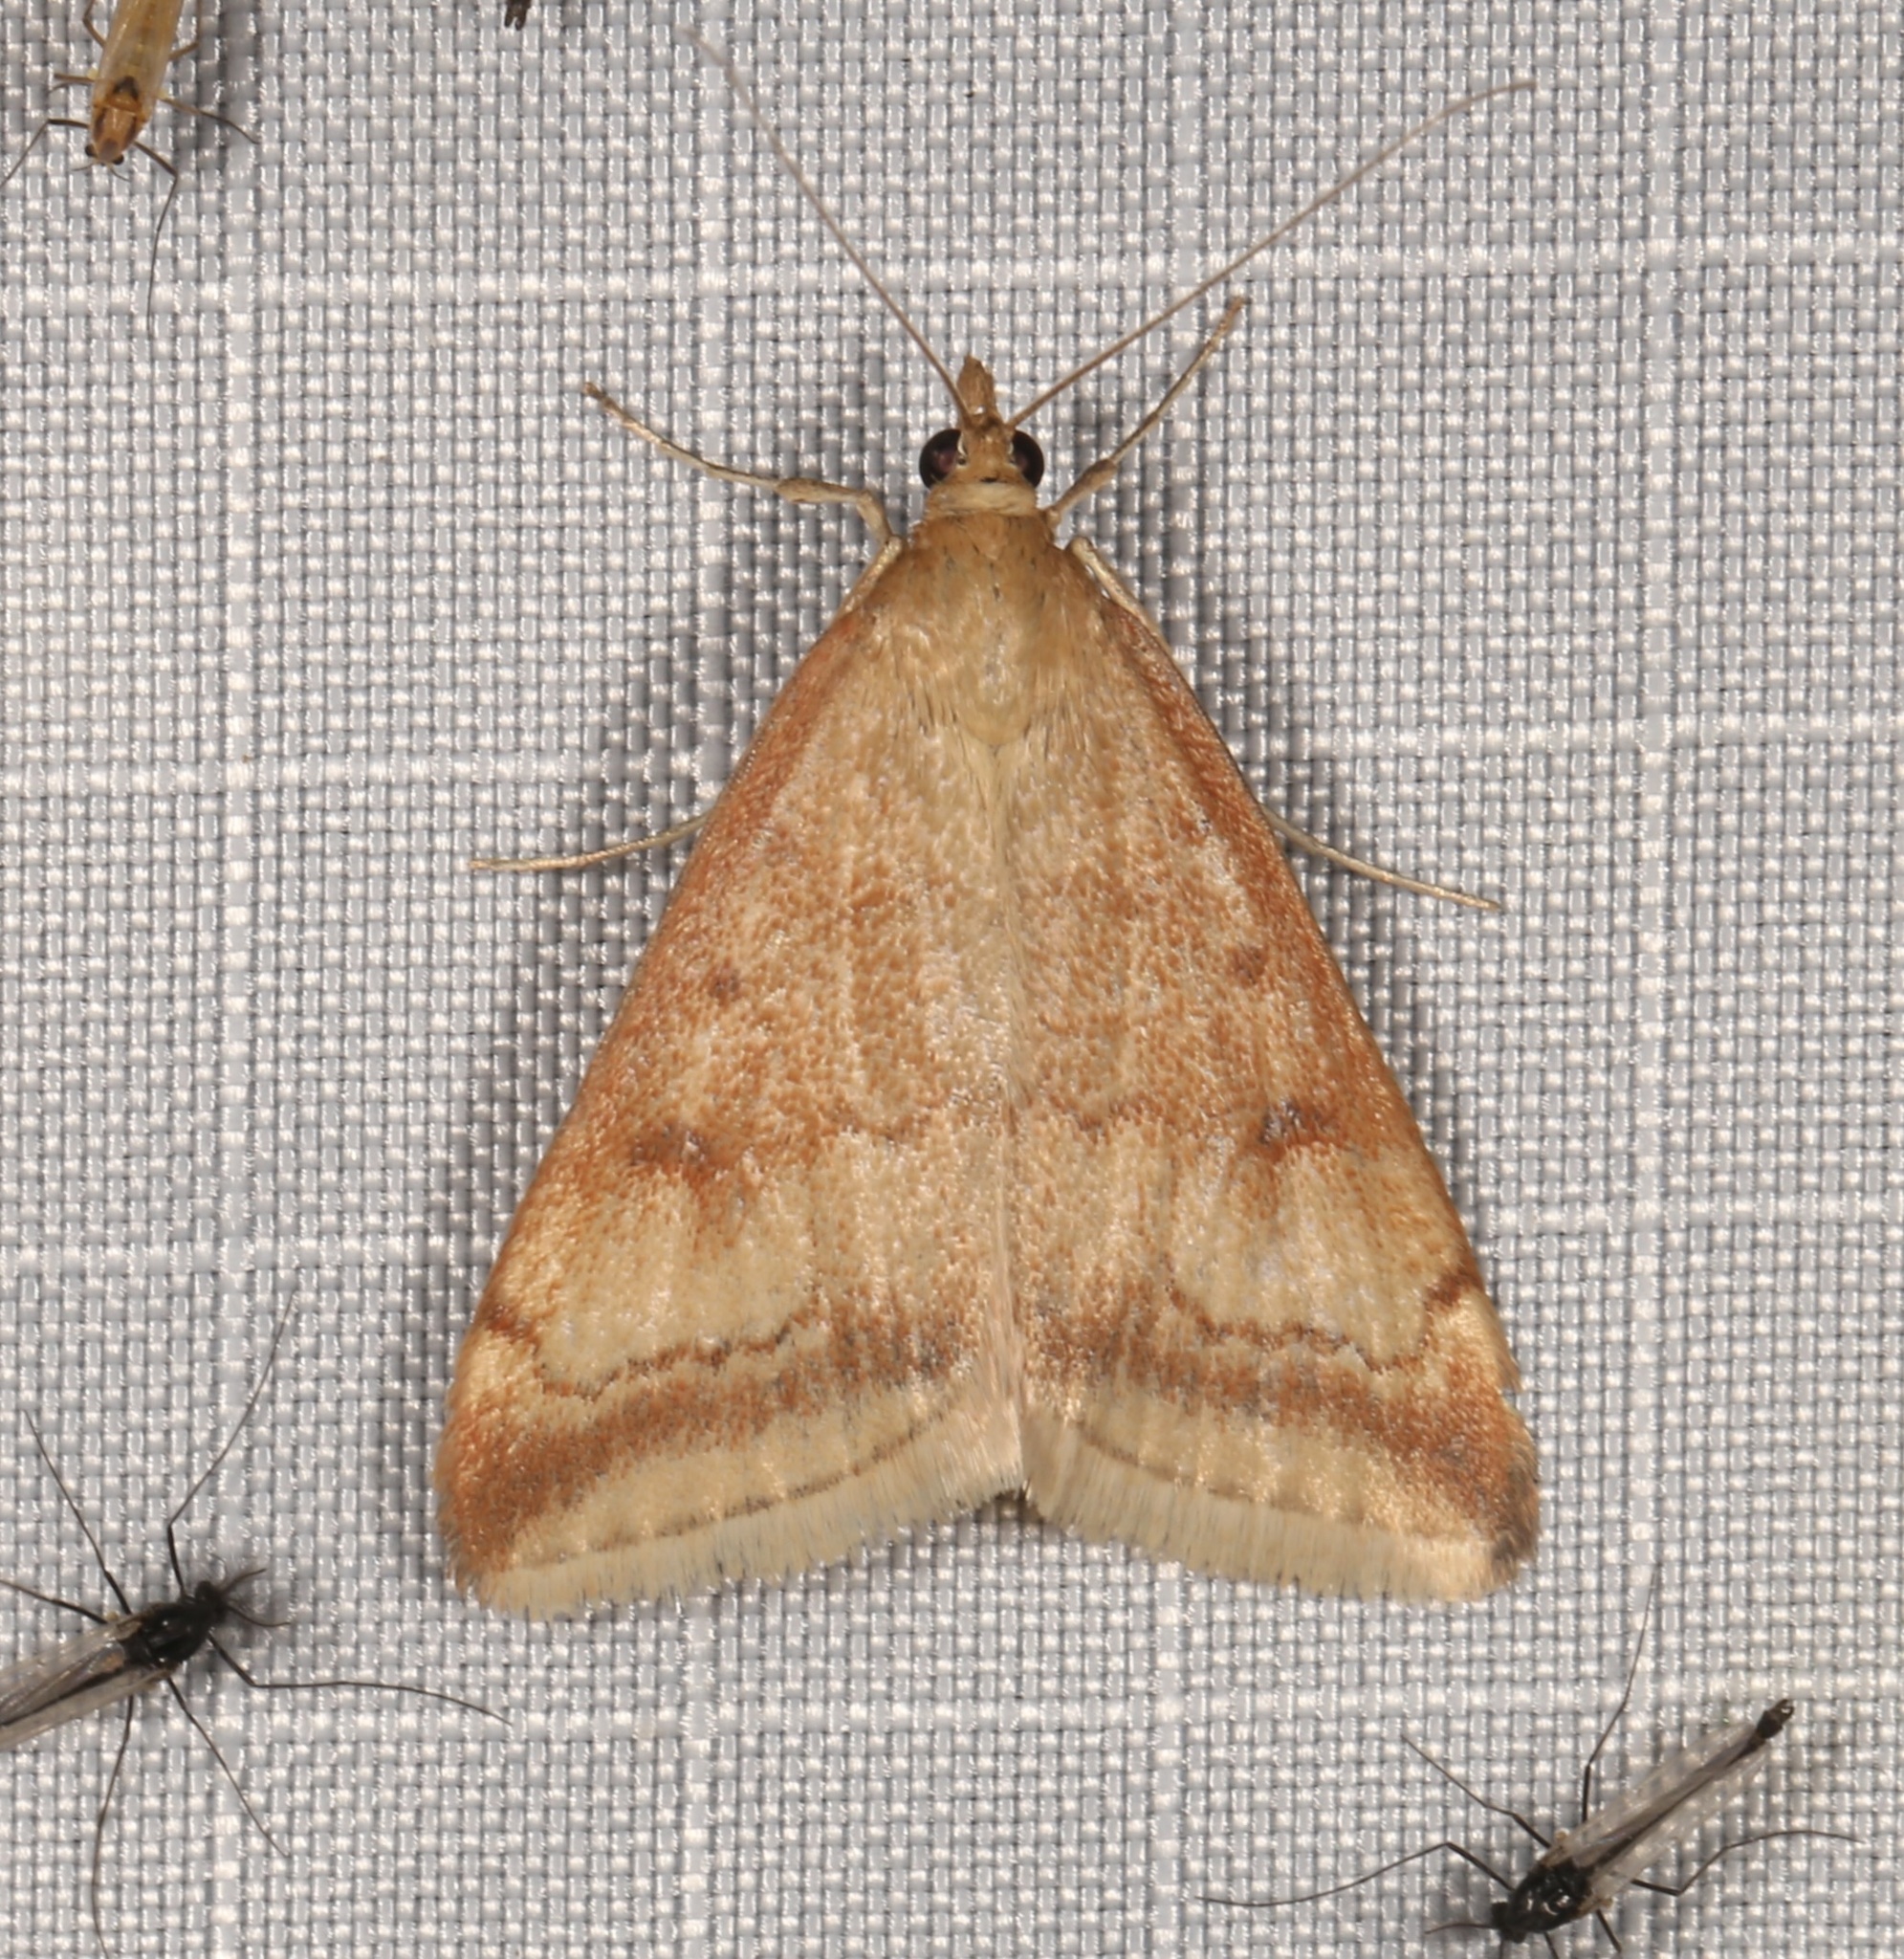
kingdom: Animalia
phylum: Arthropoda
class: Insecta
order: Lepidoptera
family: Crambidae
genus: Pyrausta
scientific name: Pyrausta fodinalis
